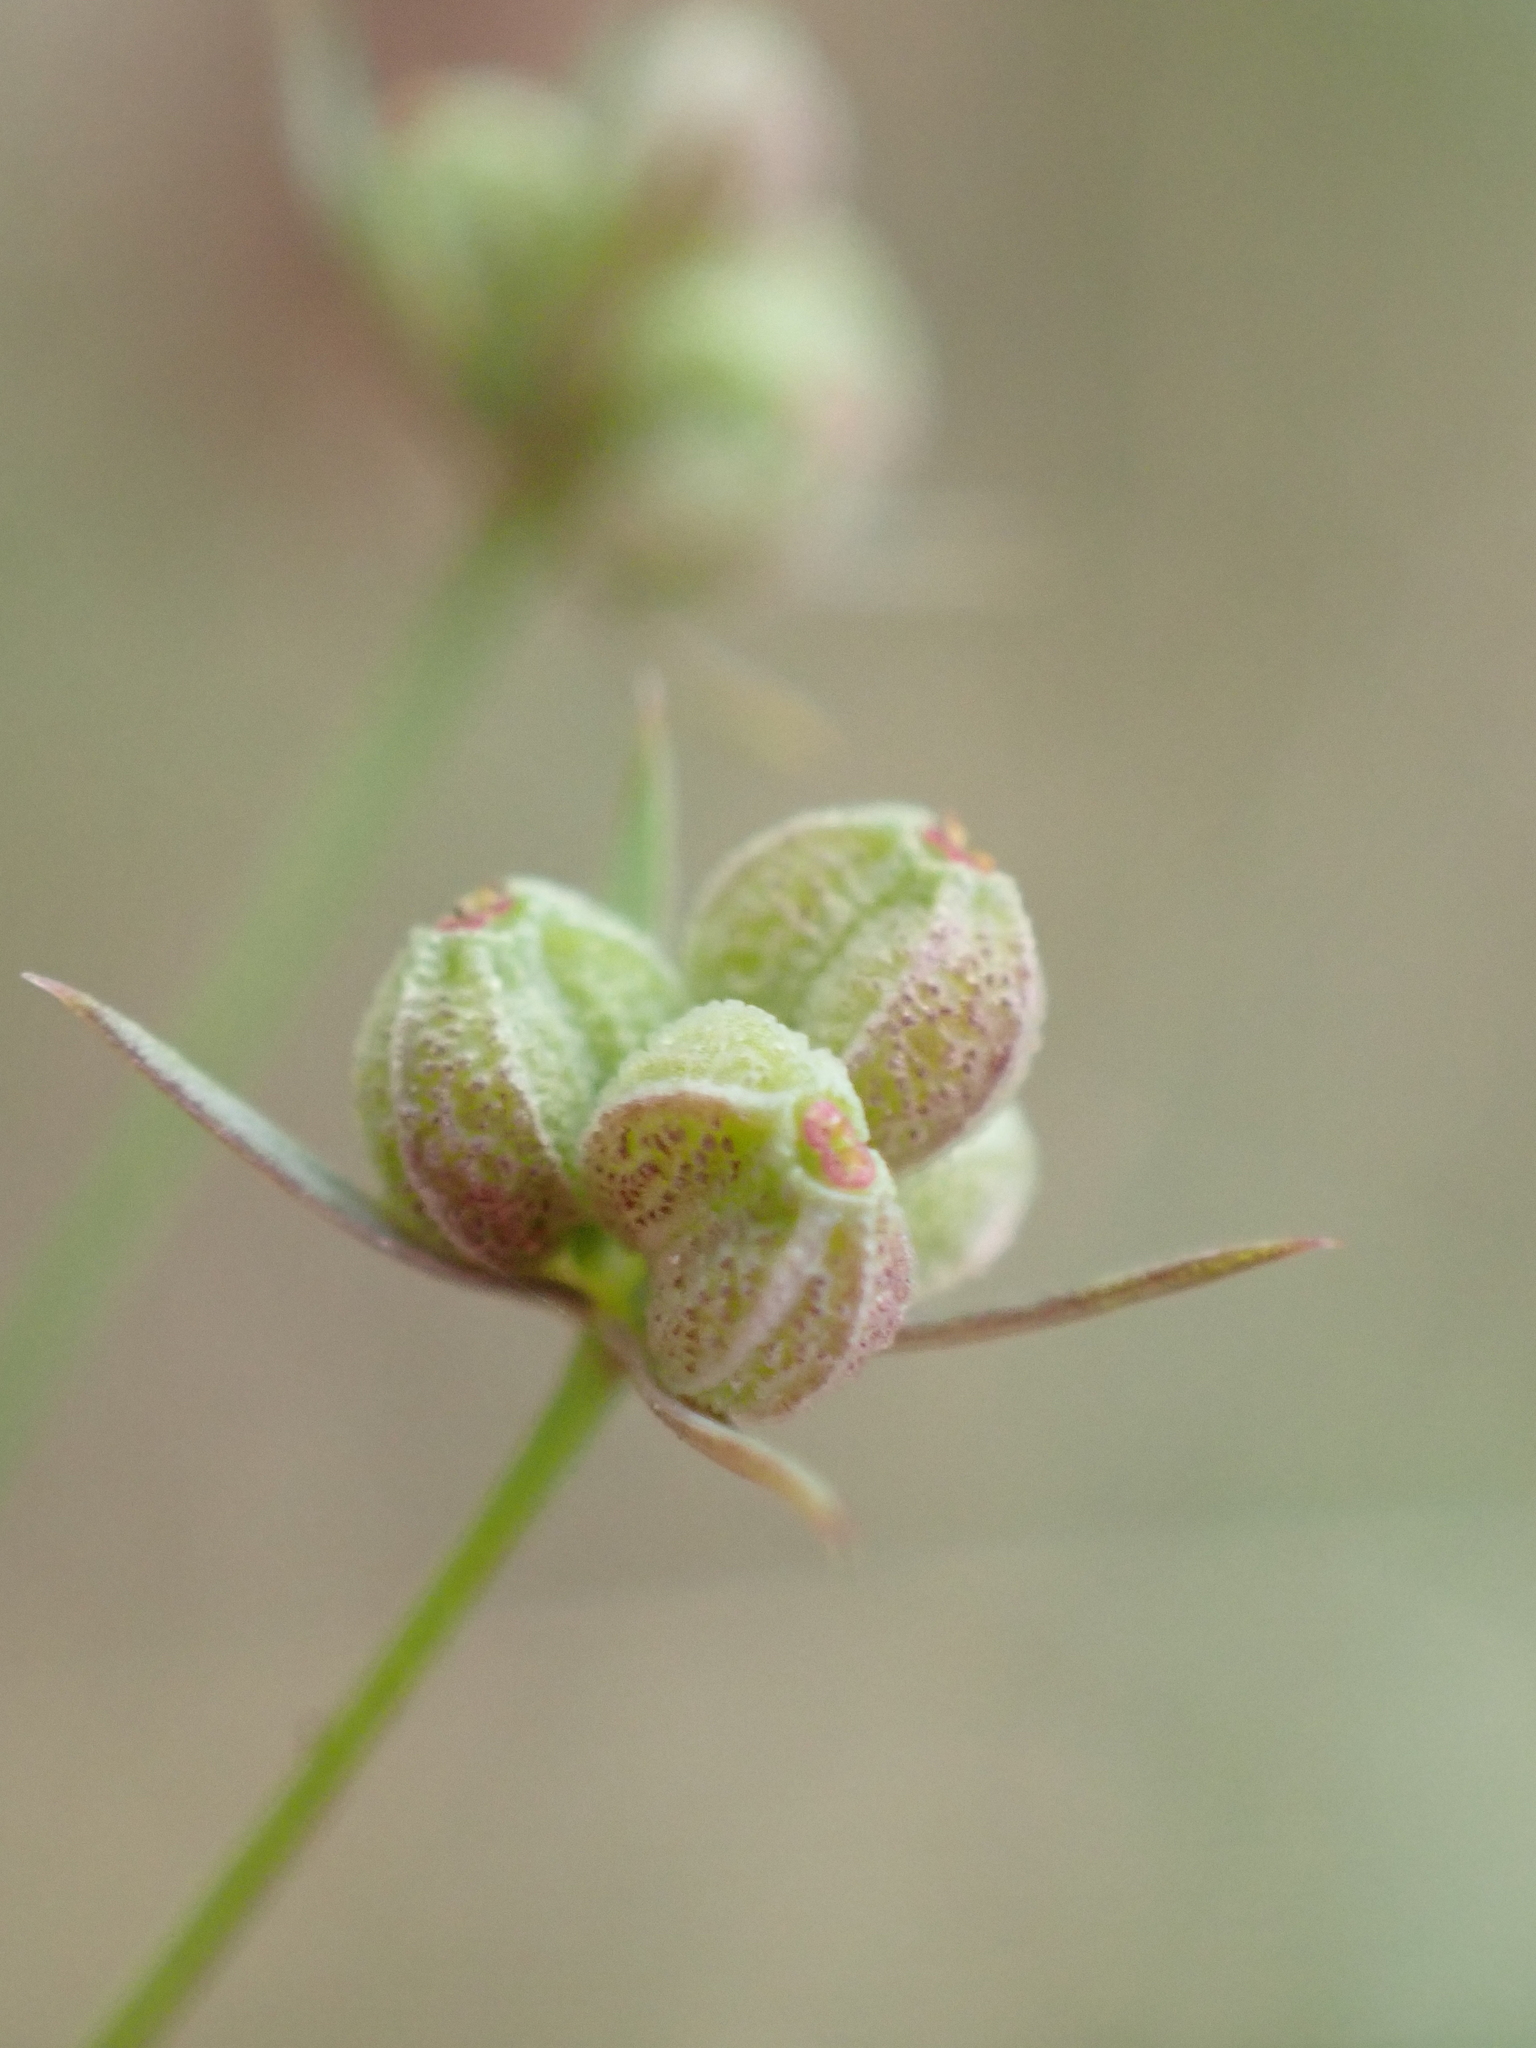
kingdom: Plantae
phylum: Tracheophyta
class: Magnoliopsida
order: Apiales
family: Apiaceae
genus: Bupleurum
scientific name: Bupleurum tenuissimum
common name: Slender hare's-ear
